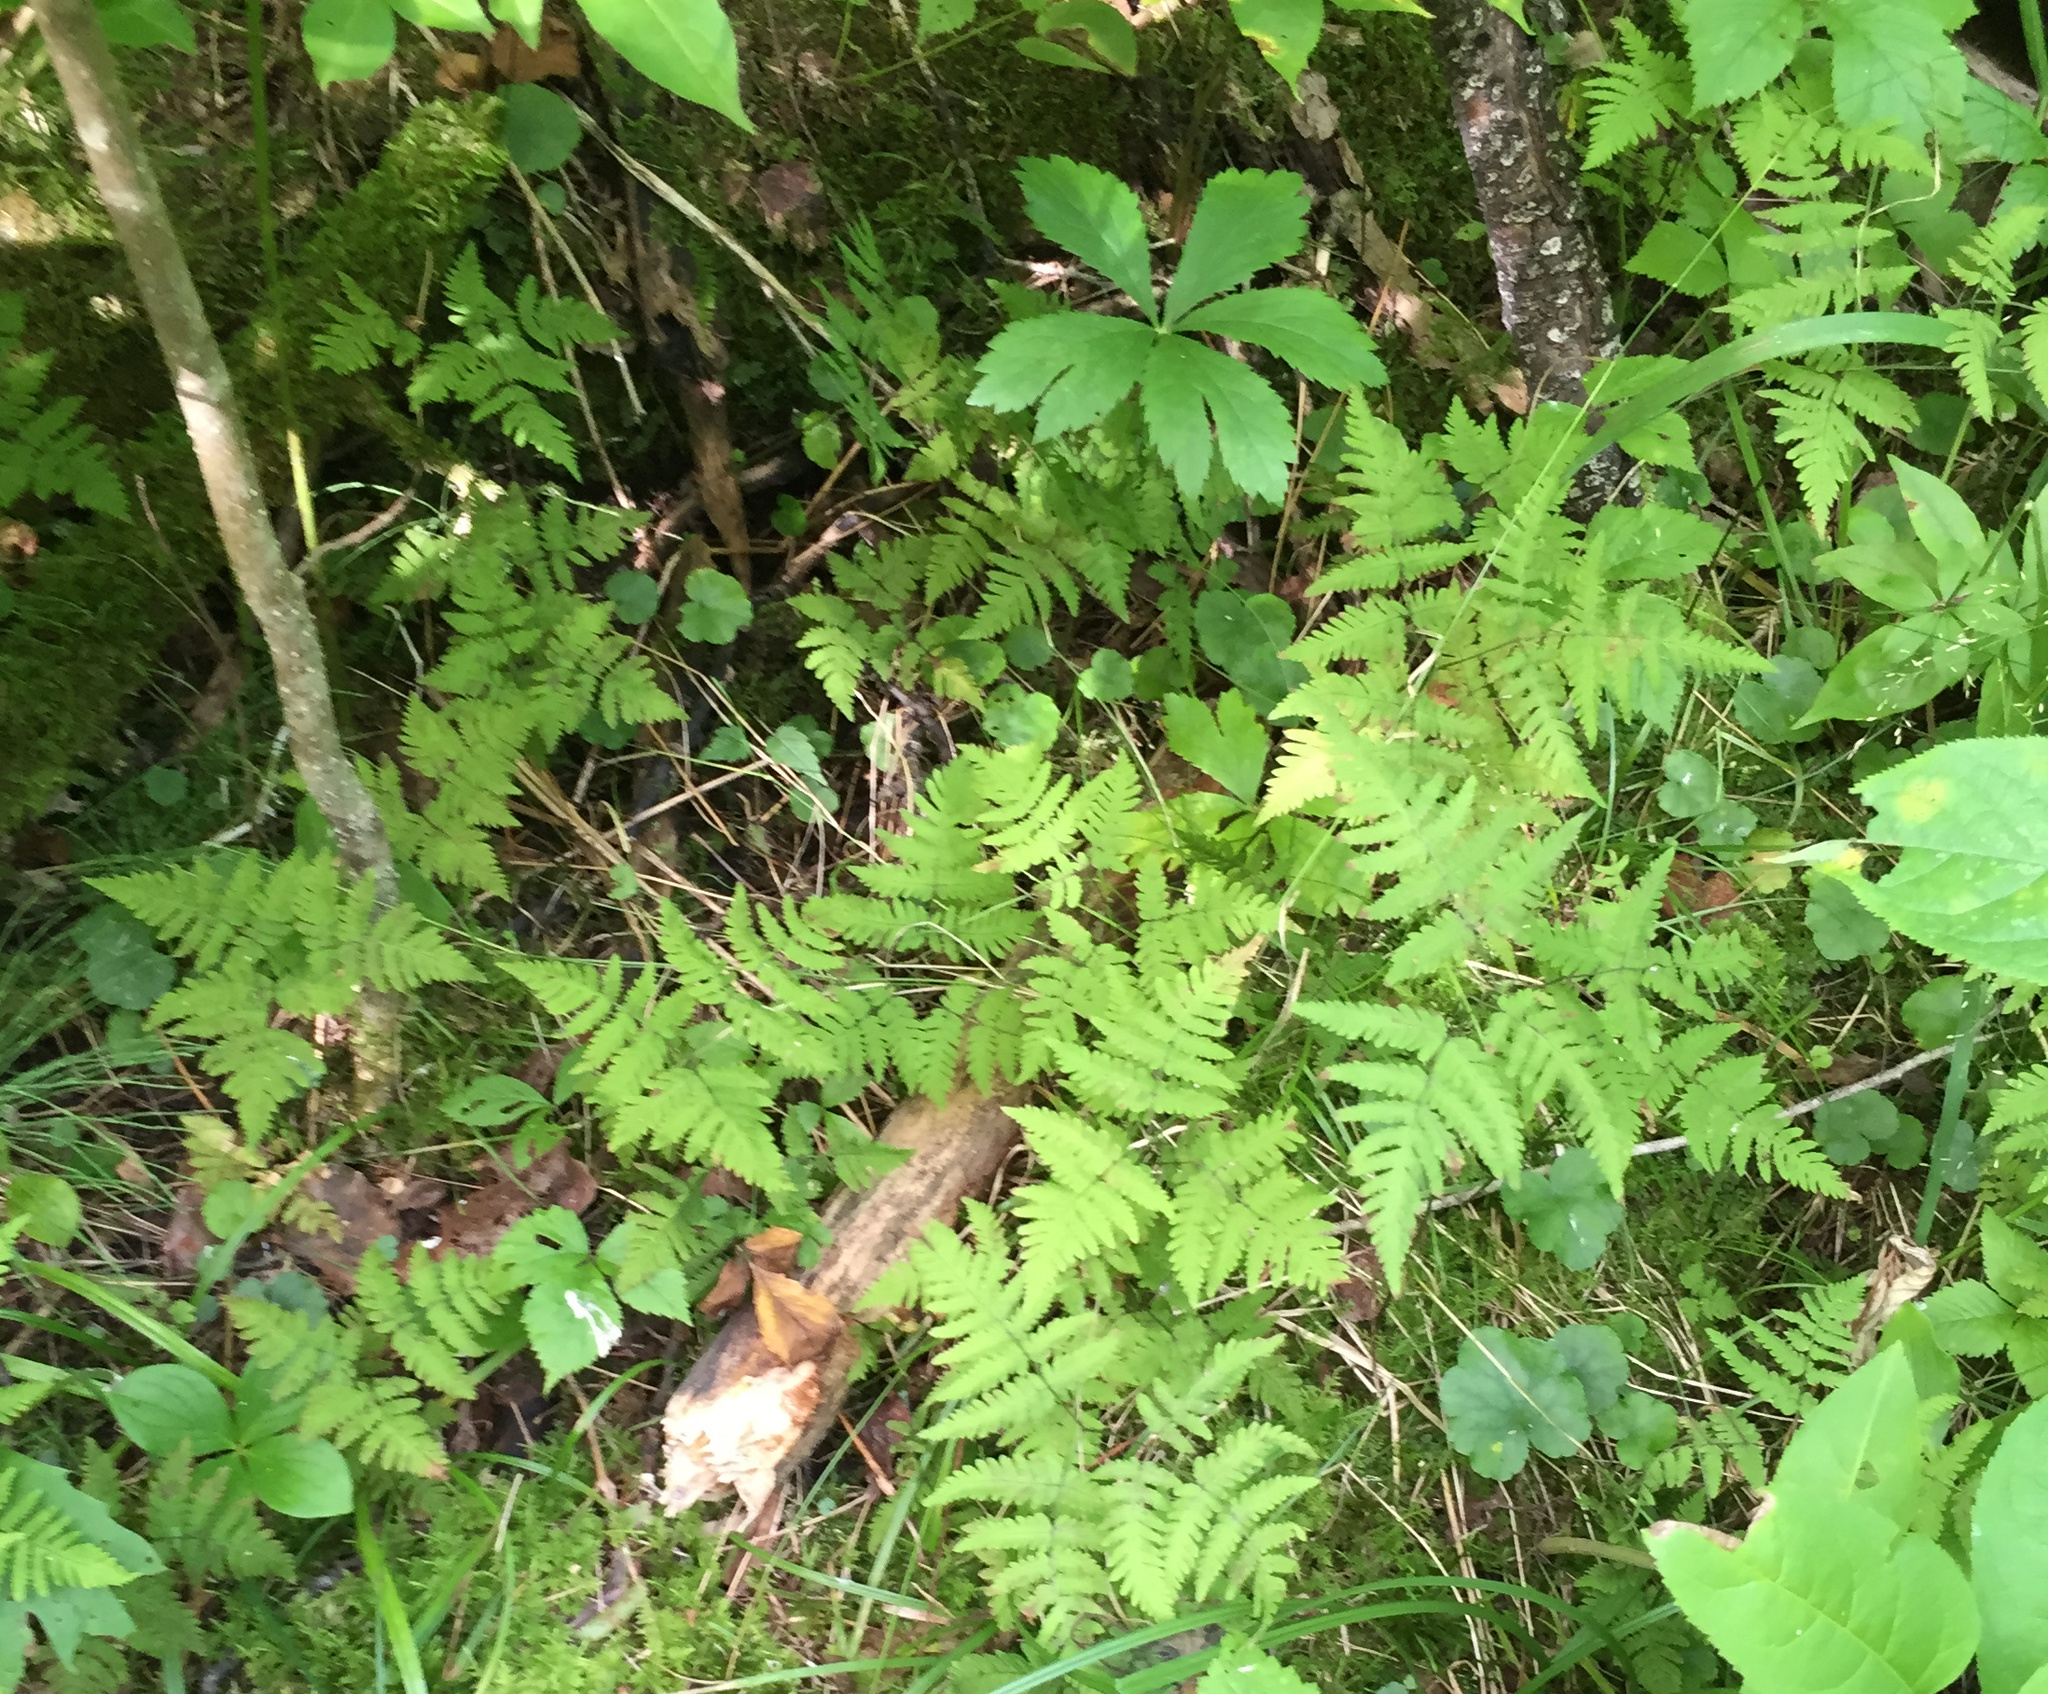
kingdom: Plantae
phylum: Tracheophyta
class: Polypodiopsida
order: Polypodiales
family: Cystopteridaceae
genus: Gymnocarpium
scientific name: Gymnocarpium dryopteris
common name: Oak fern
